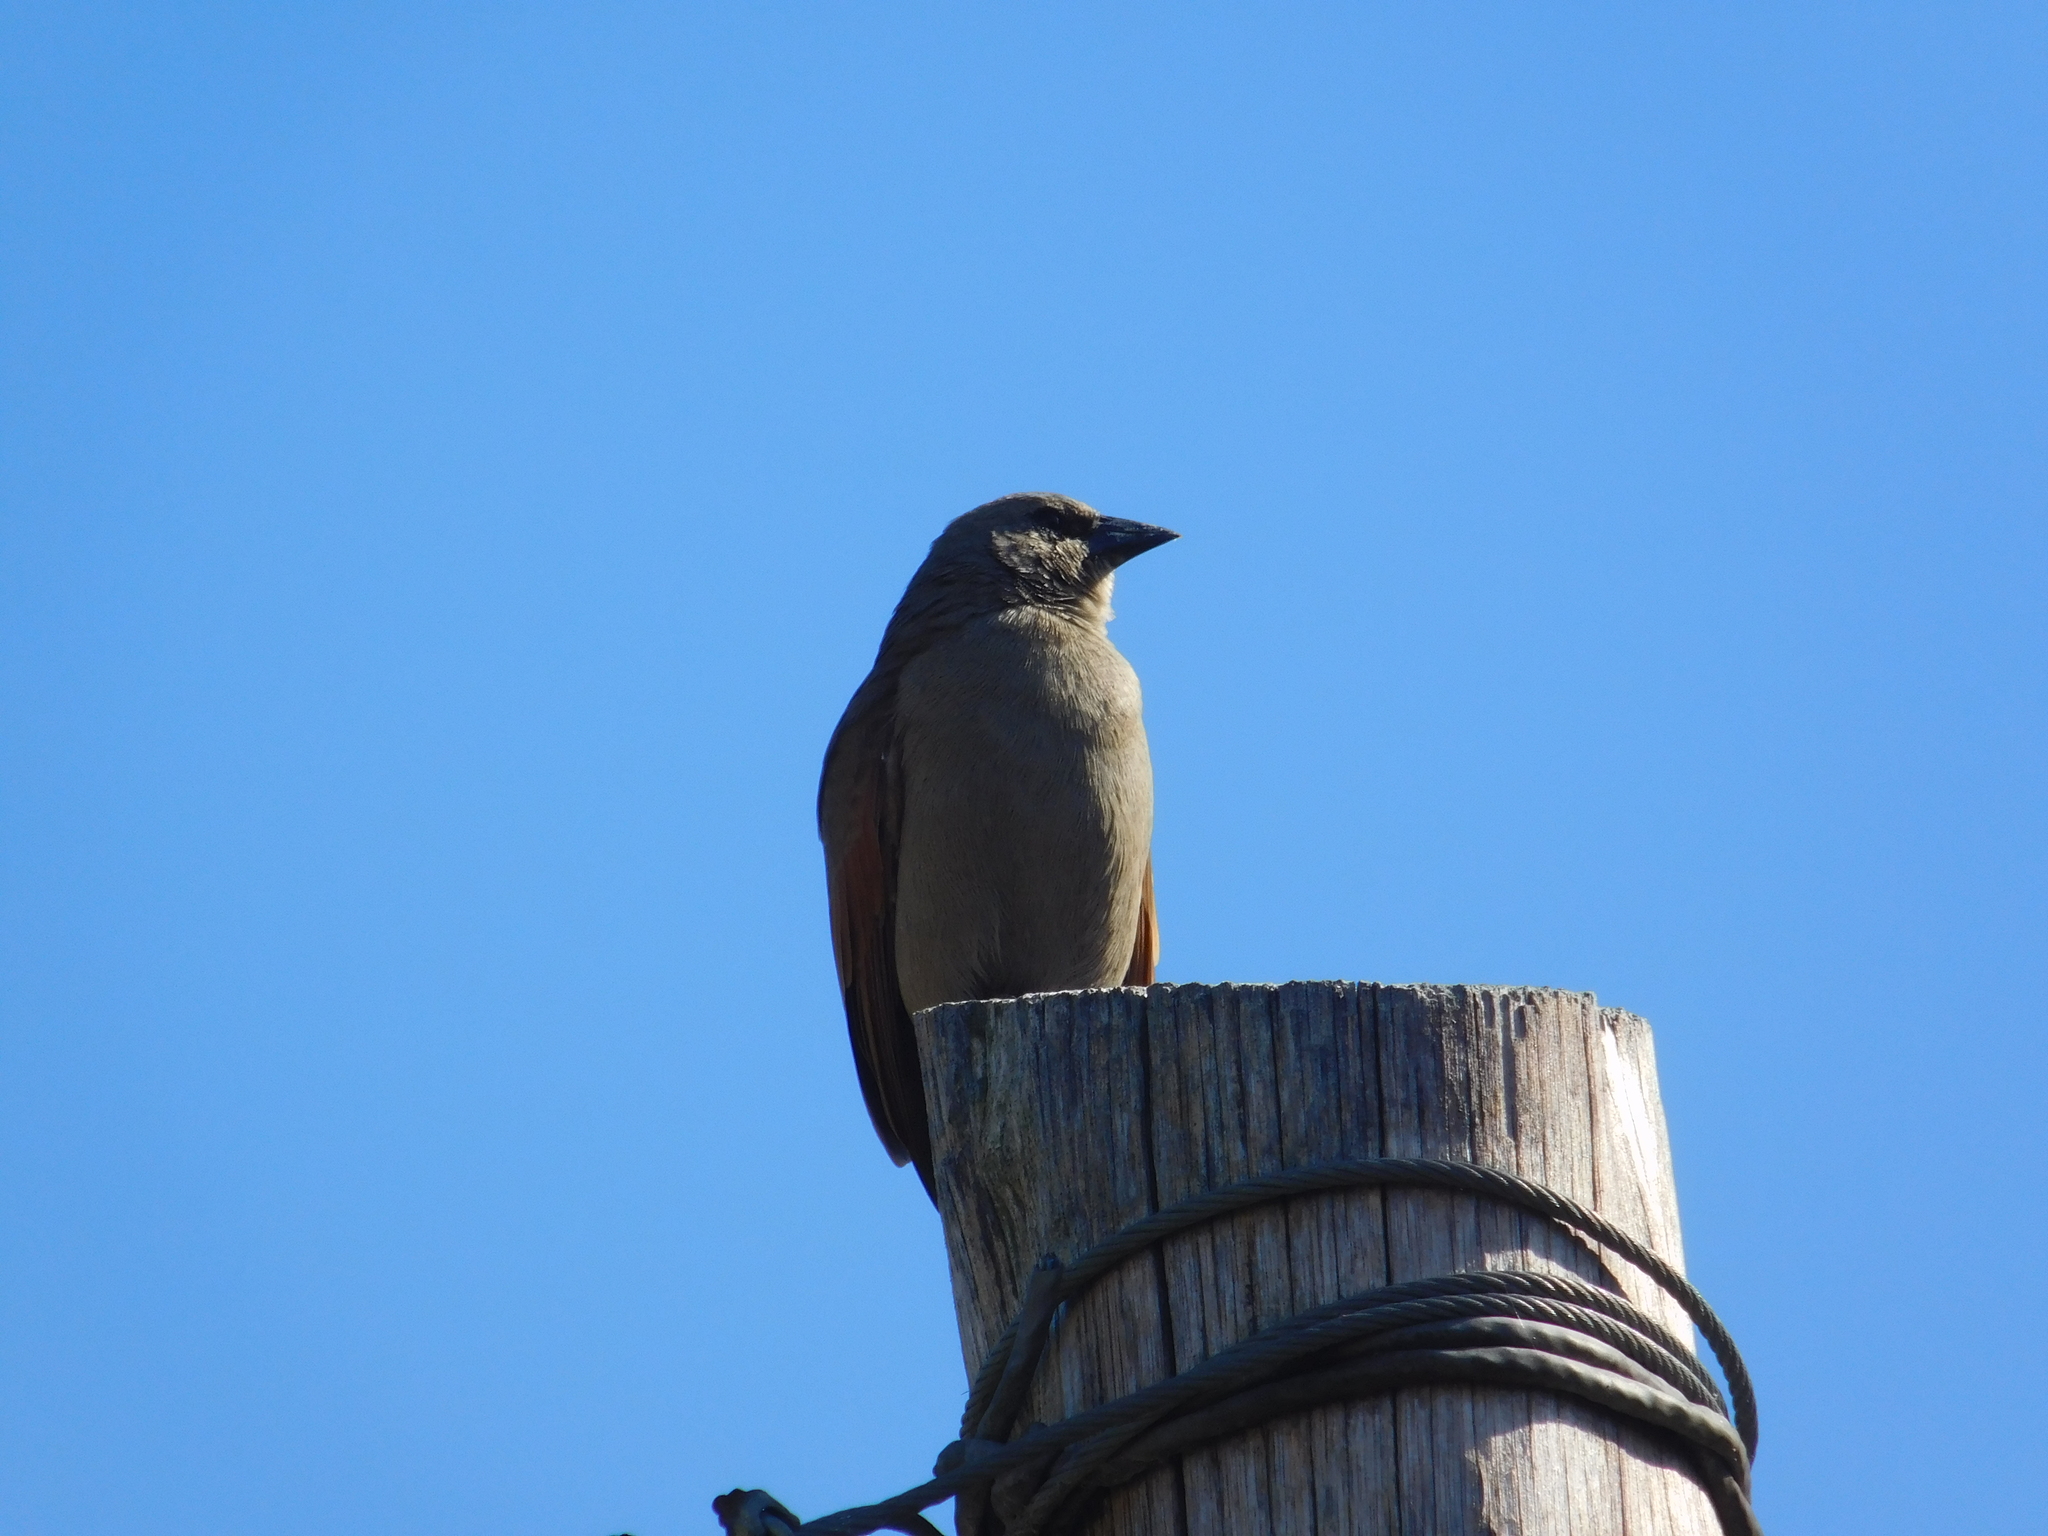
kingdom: Animalia
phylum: Chordata
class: Aves
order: Passeriformes
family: Icteridae
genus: Agelaioides
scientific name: Agelaioides badius
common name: Baywing
